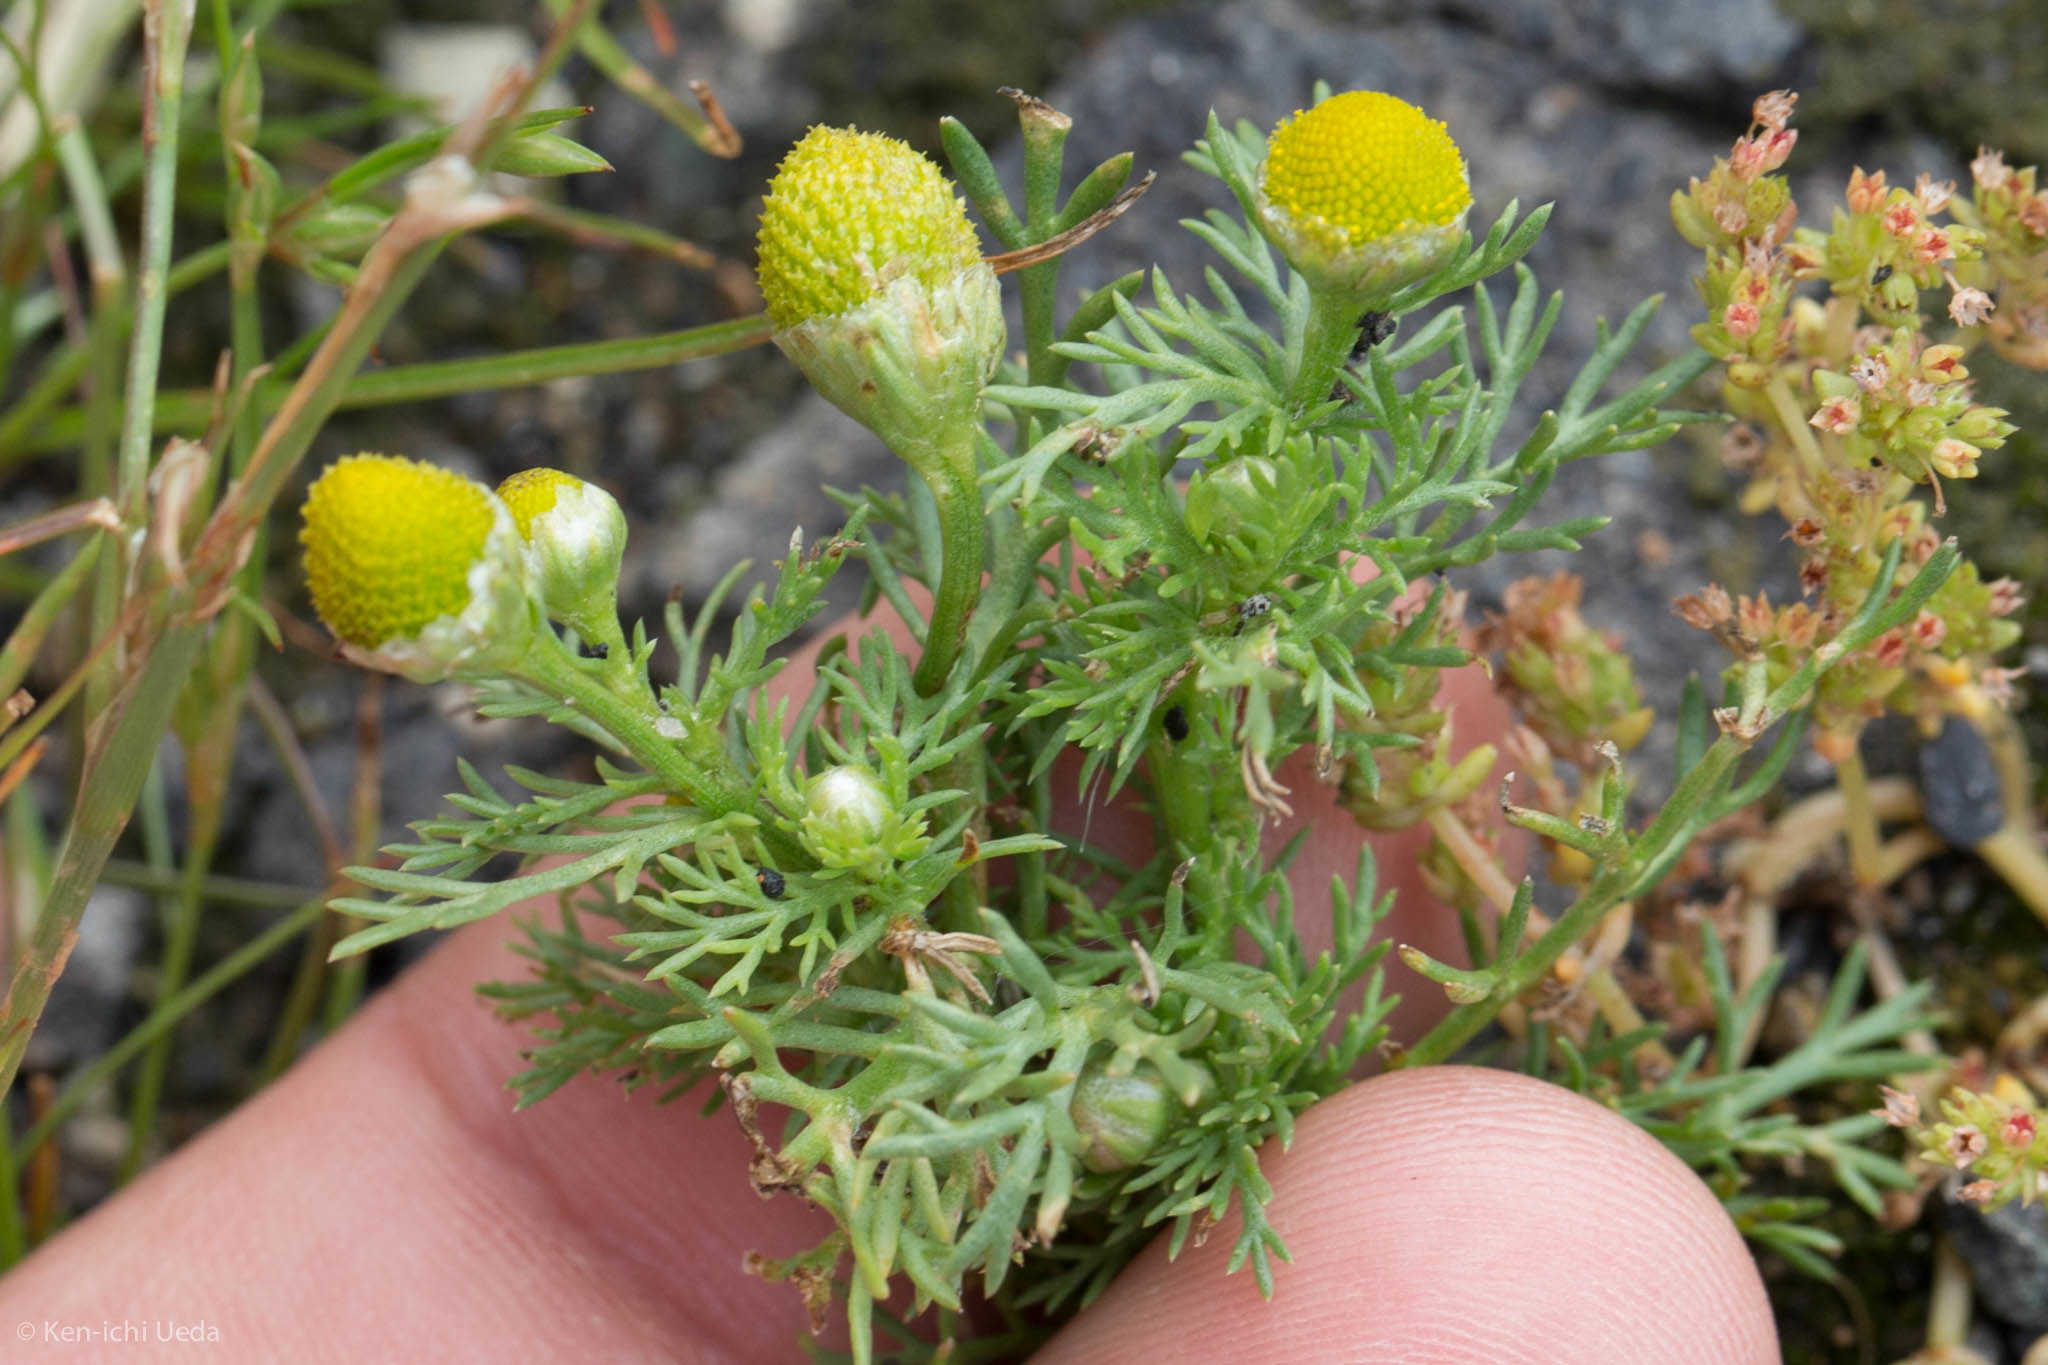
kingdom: Plantae
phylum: Tracheophyta
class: Magnoliopsida
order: Asterales
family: Asteraceae
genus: Matricaria
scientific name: Matricaria discoidea
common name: Disc mayweed
